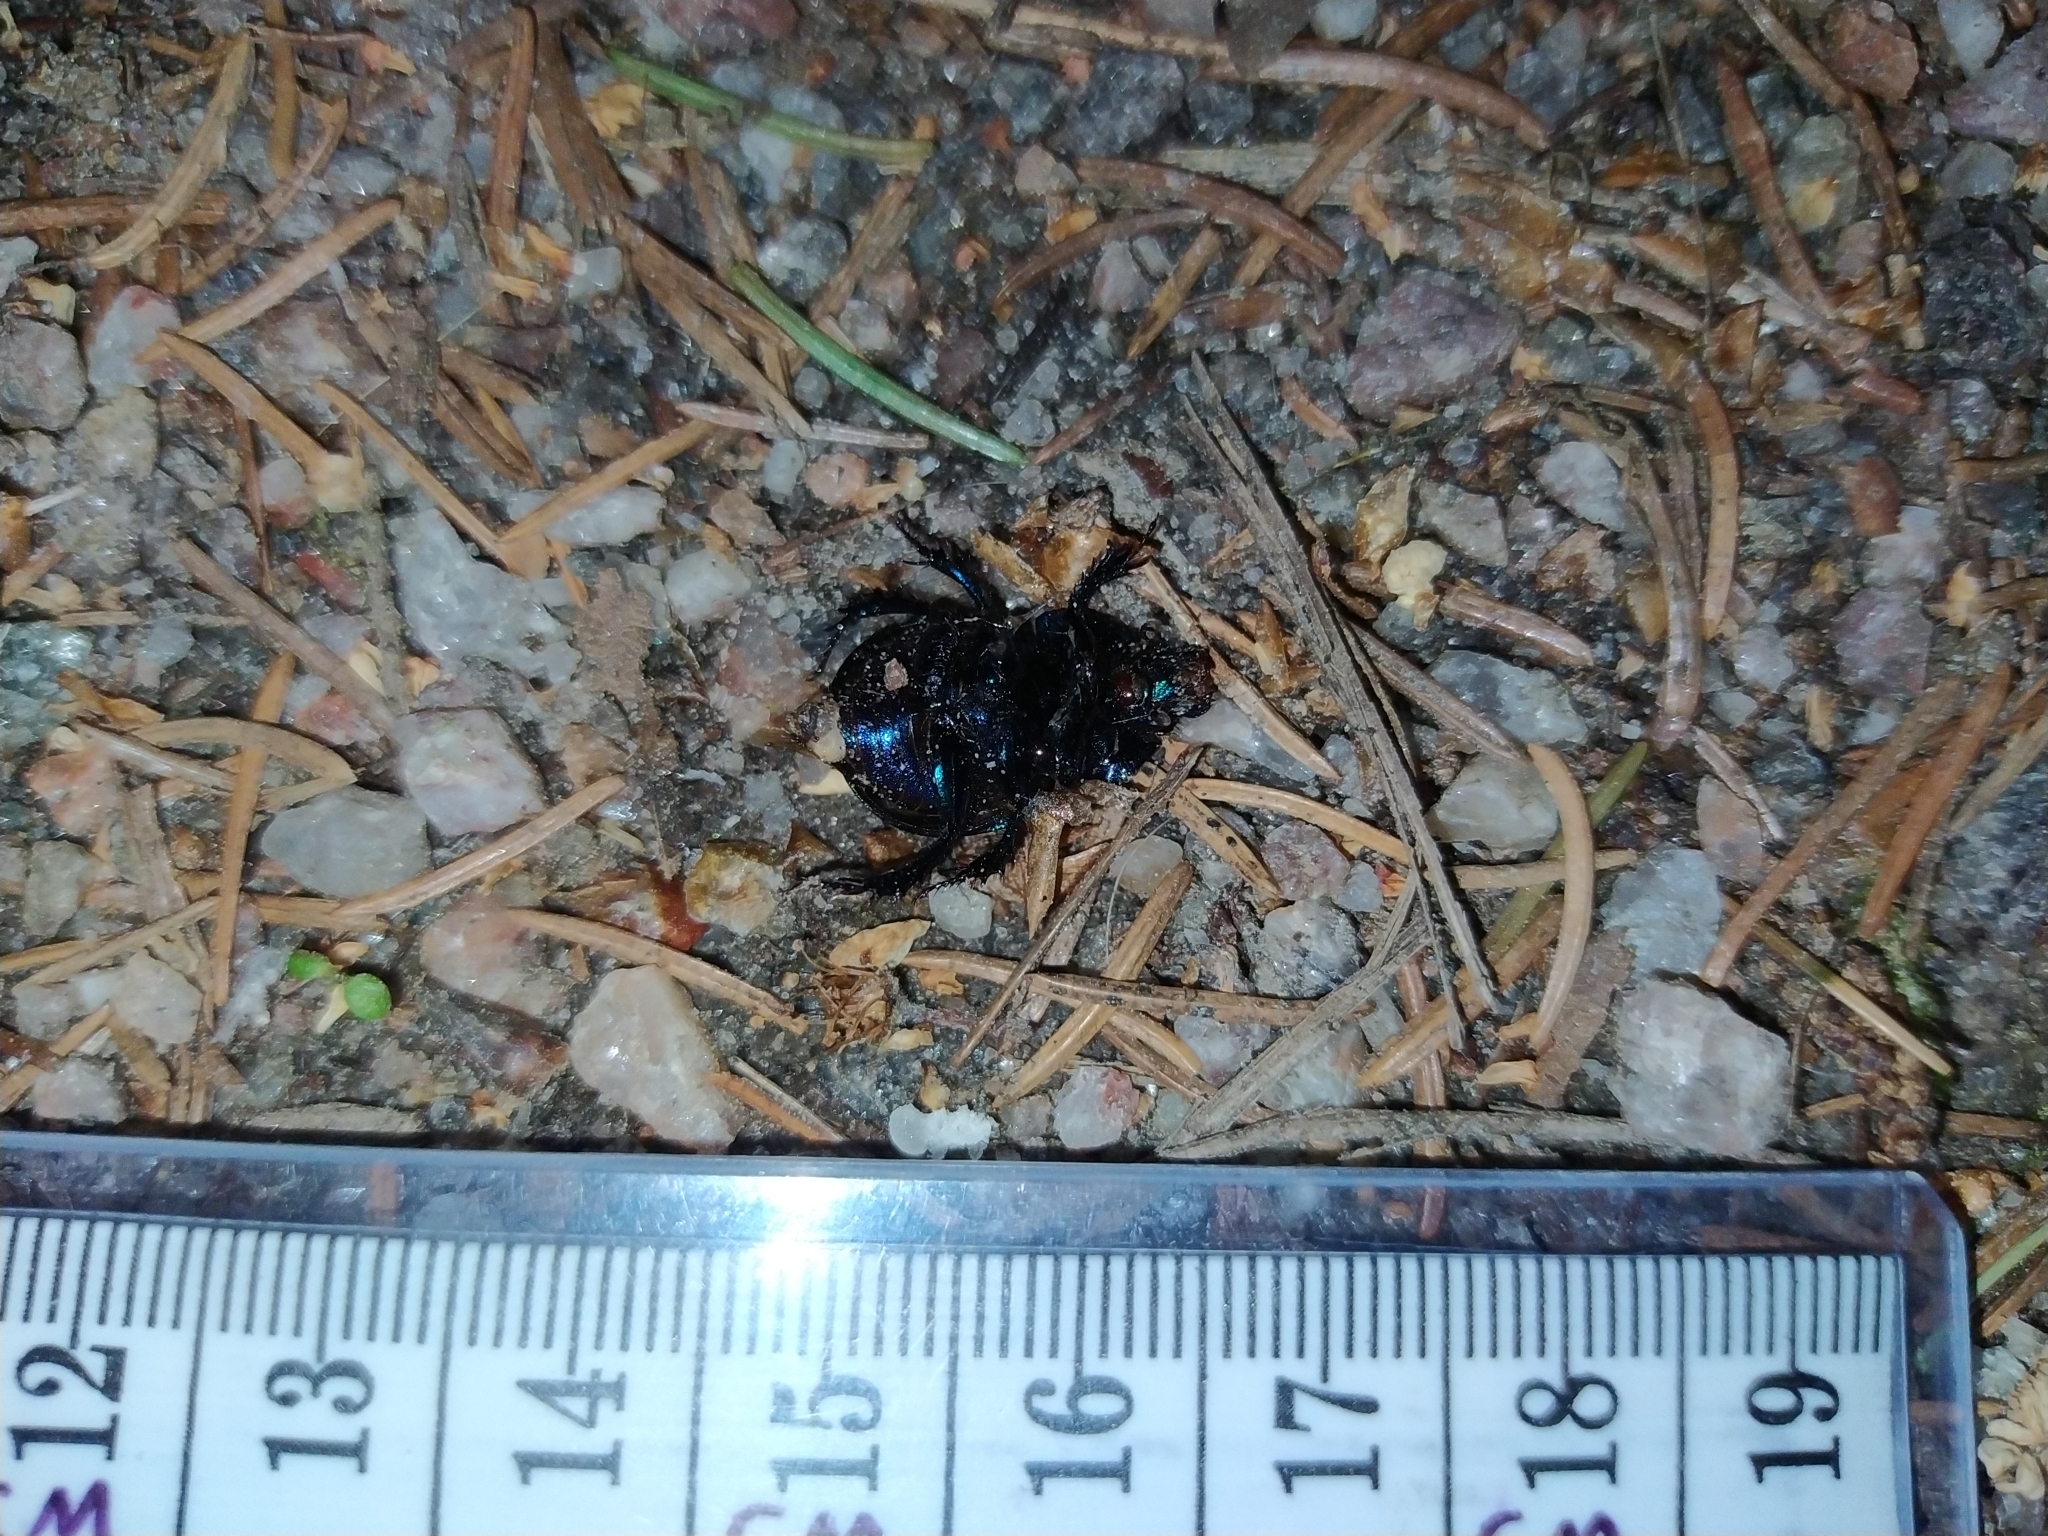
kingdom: Animalia
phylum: Arthropoda
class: Insecta
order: Coleoptera
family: Geotrupidae
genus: Anoplotrupes
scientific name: Anoplotrupes stercorosus
